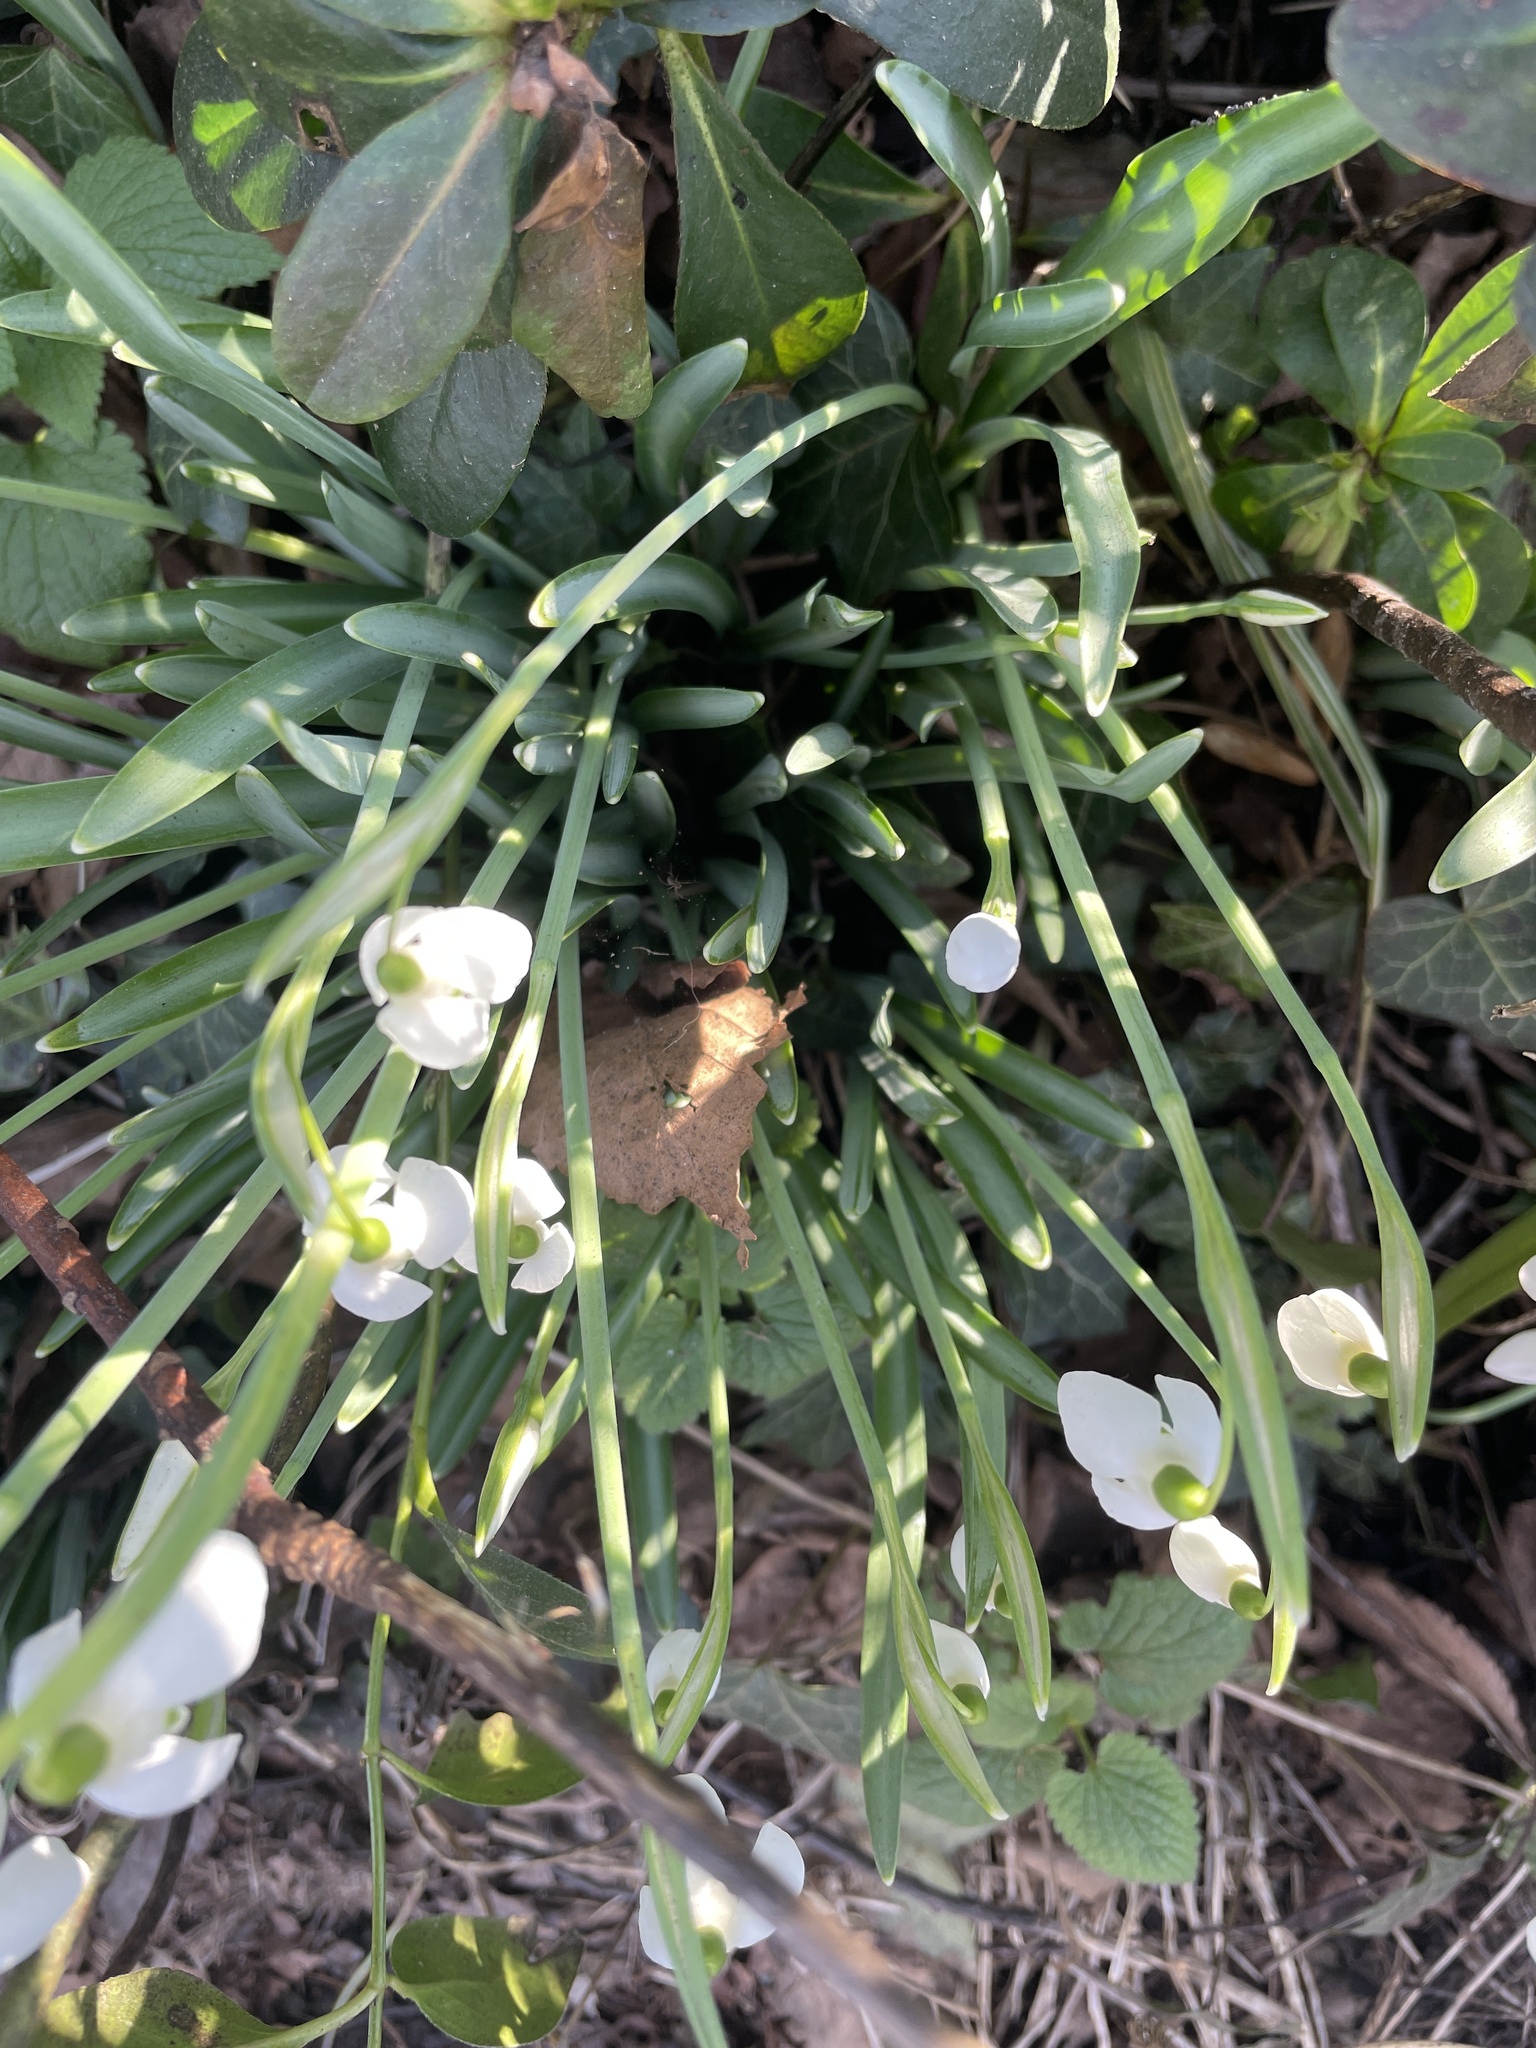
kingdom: Plantae
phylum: Tracheophyta
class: Liliopsida
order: Asparagales
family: Amaryllidaceae
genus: Galanthus
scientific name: Galanthus nivalis
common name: Snowdrop
